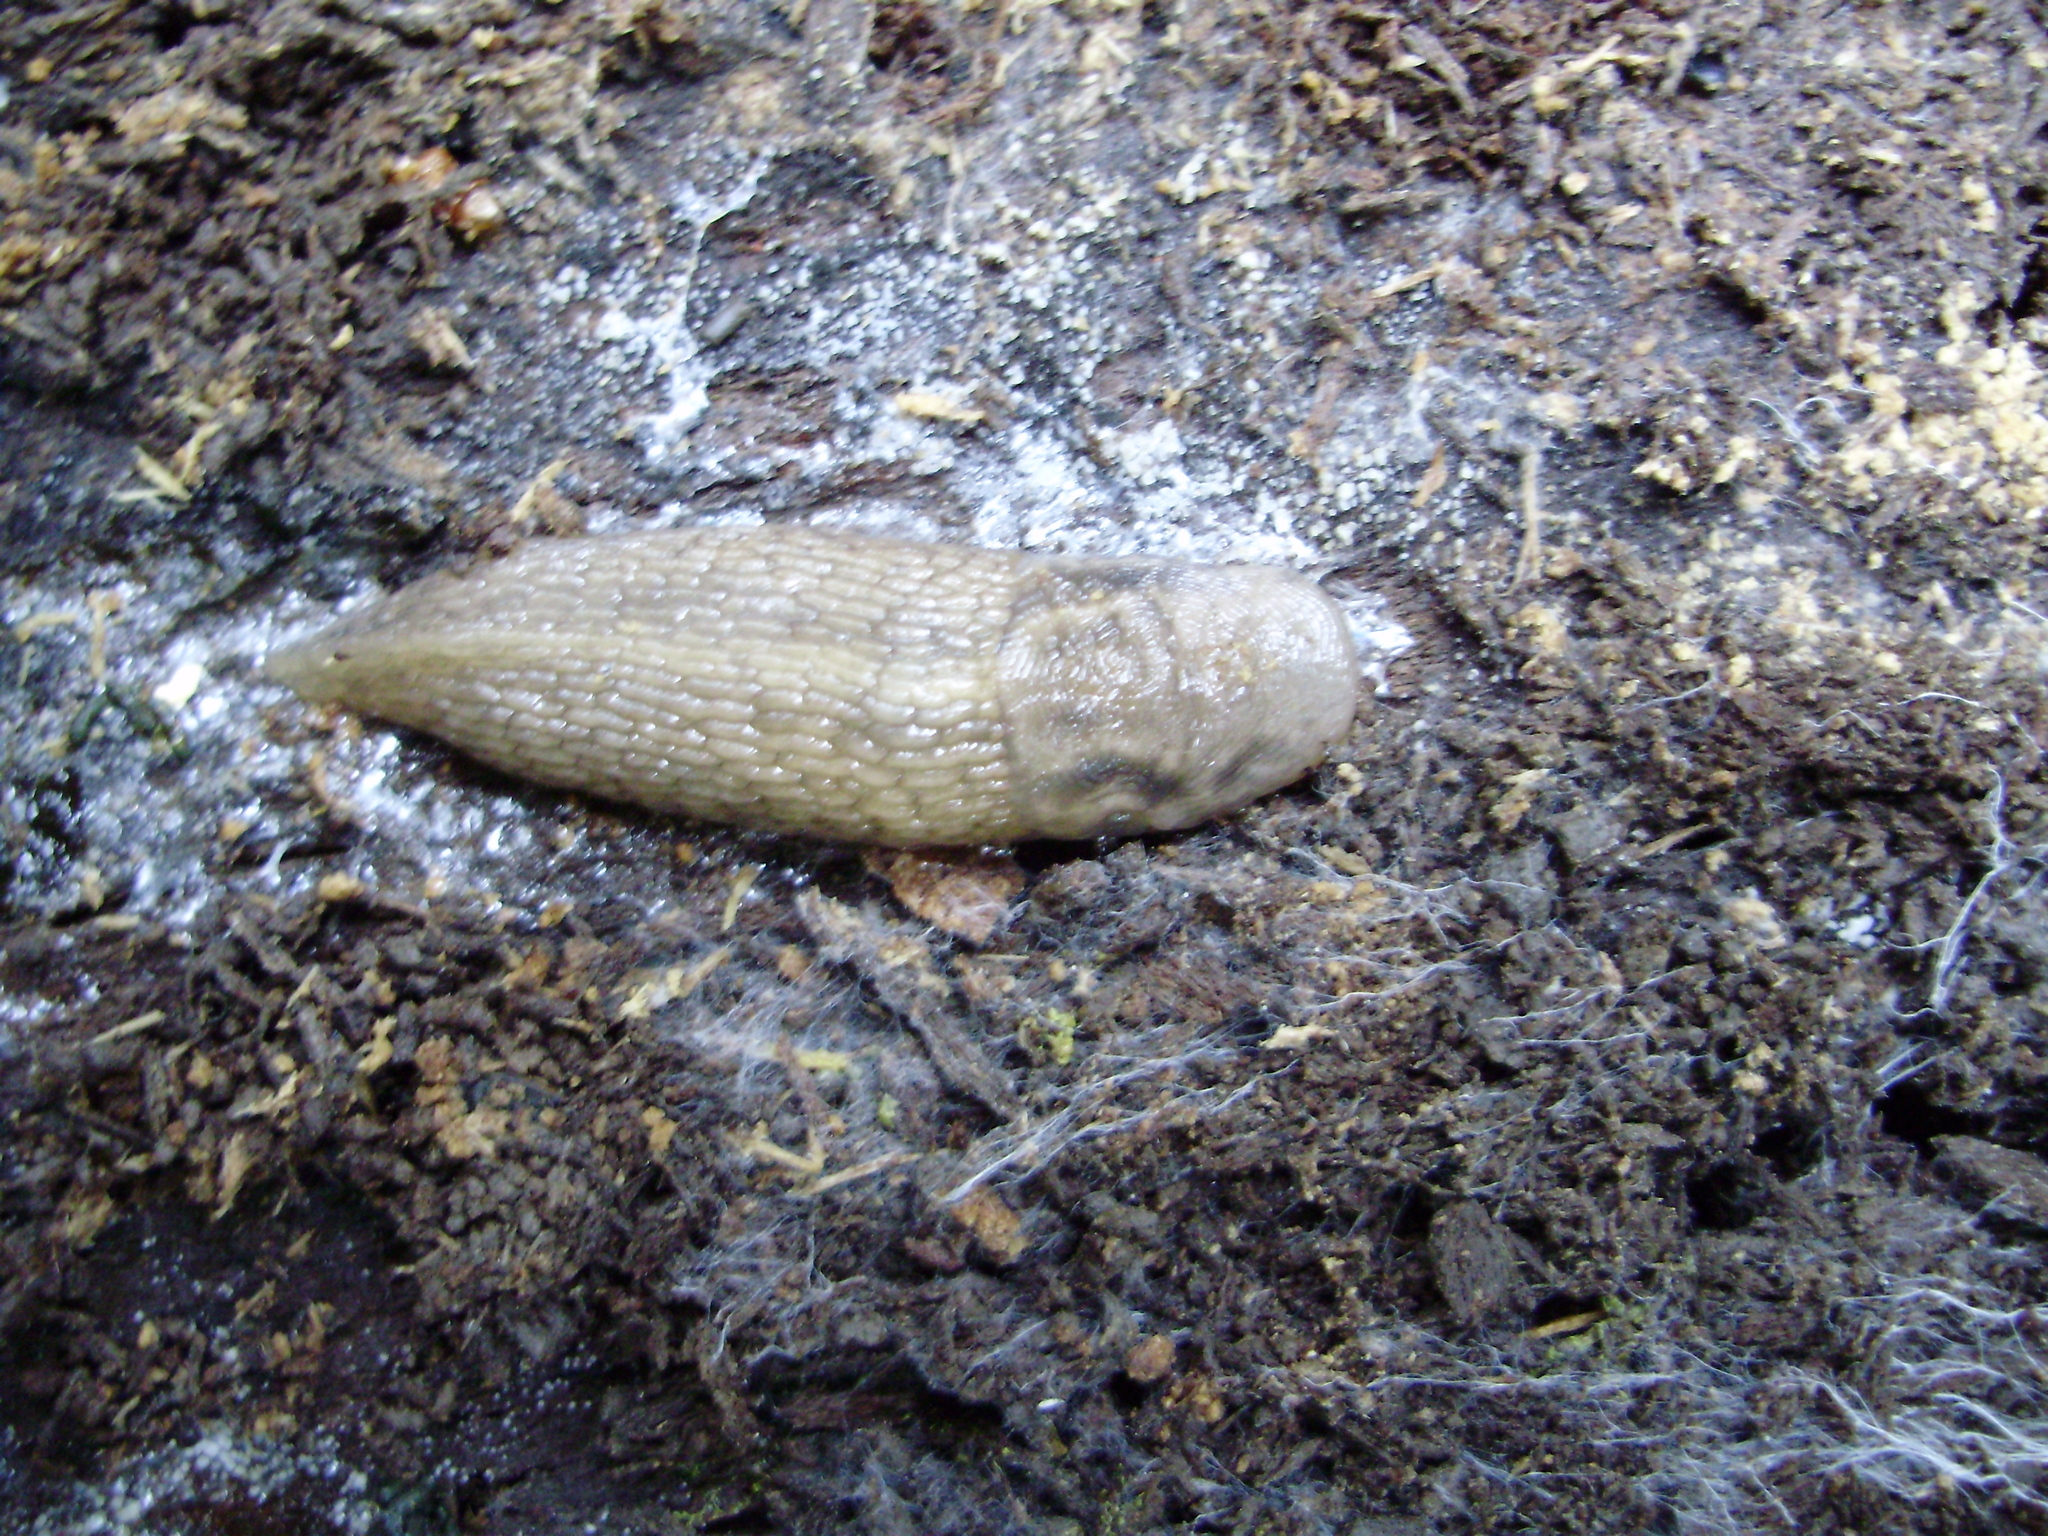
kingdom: Animalia
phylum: Mollusca
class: Gastropoda
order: Stylommatophora
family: Limacidae
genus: Lehmannia
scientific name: Lehmannia marginata
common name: Tree slug
